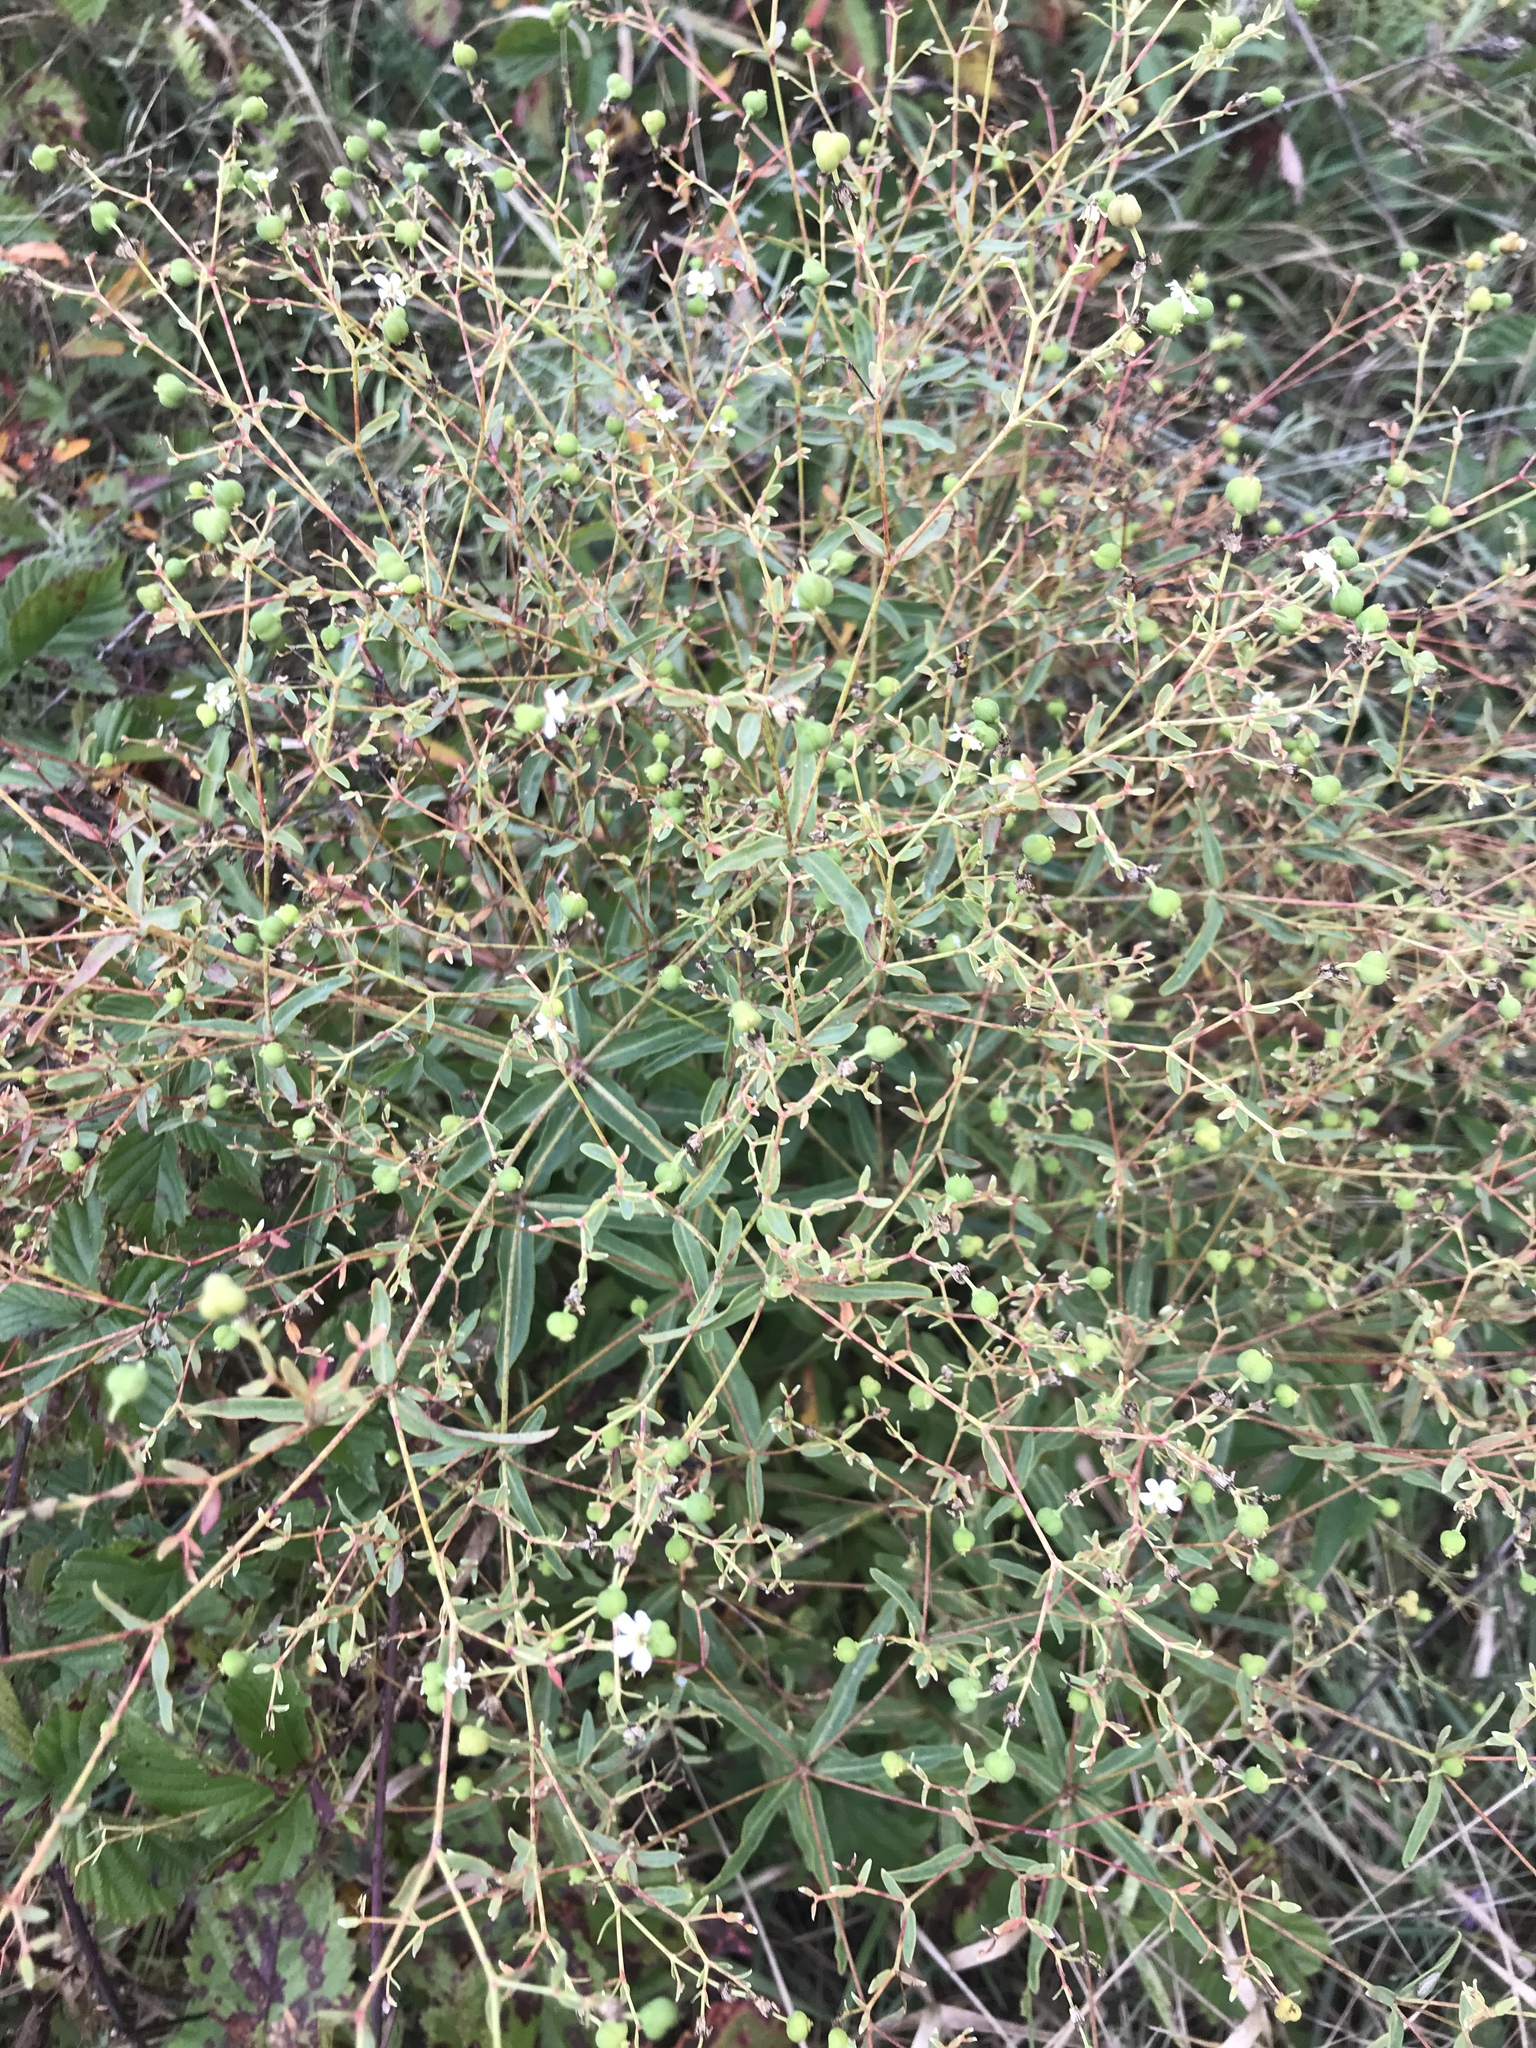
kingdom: Plantae
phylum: Tracheophyta
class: Magnoliopsida
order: Malpighiales
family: Euphorbiaceae
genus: Euphorbia
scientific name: Euphorbia corollata
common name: Flowering spurge
